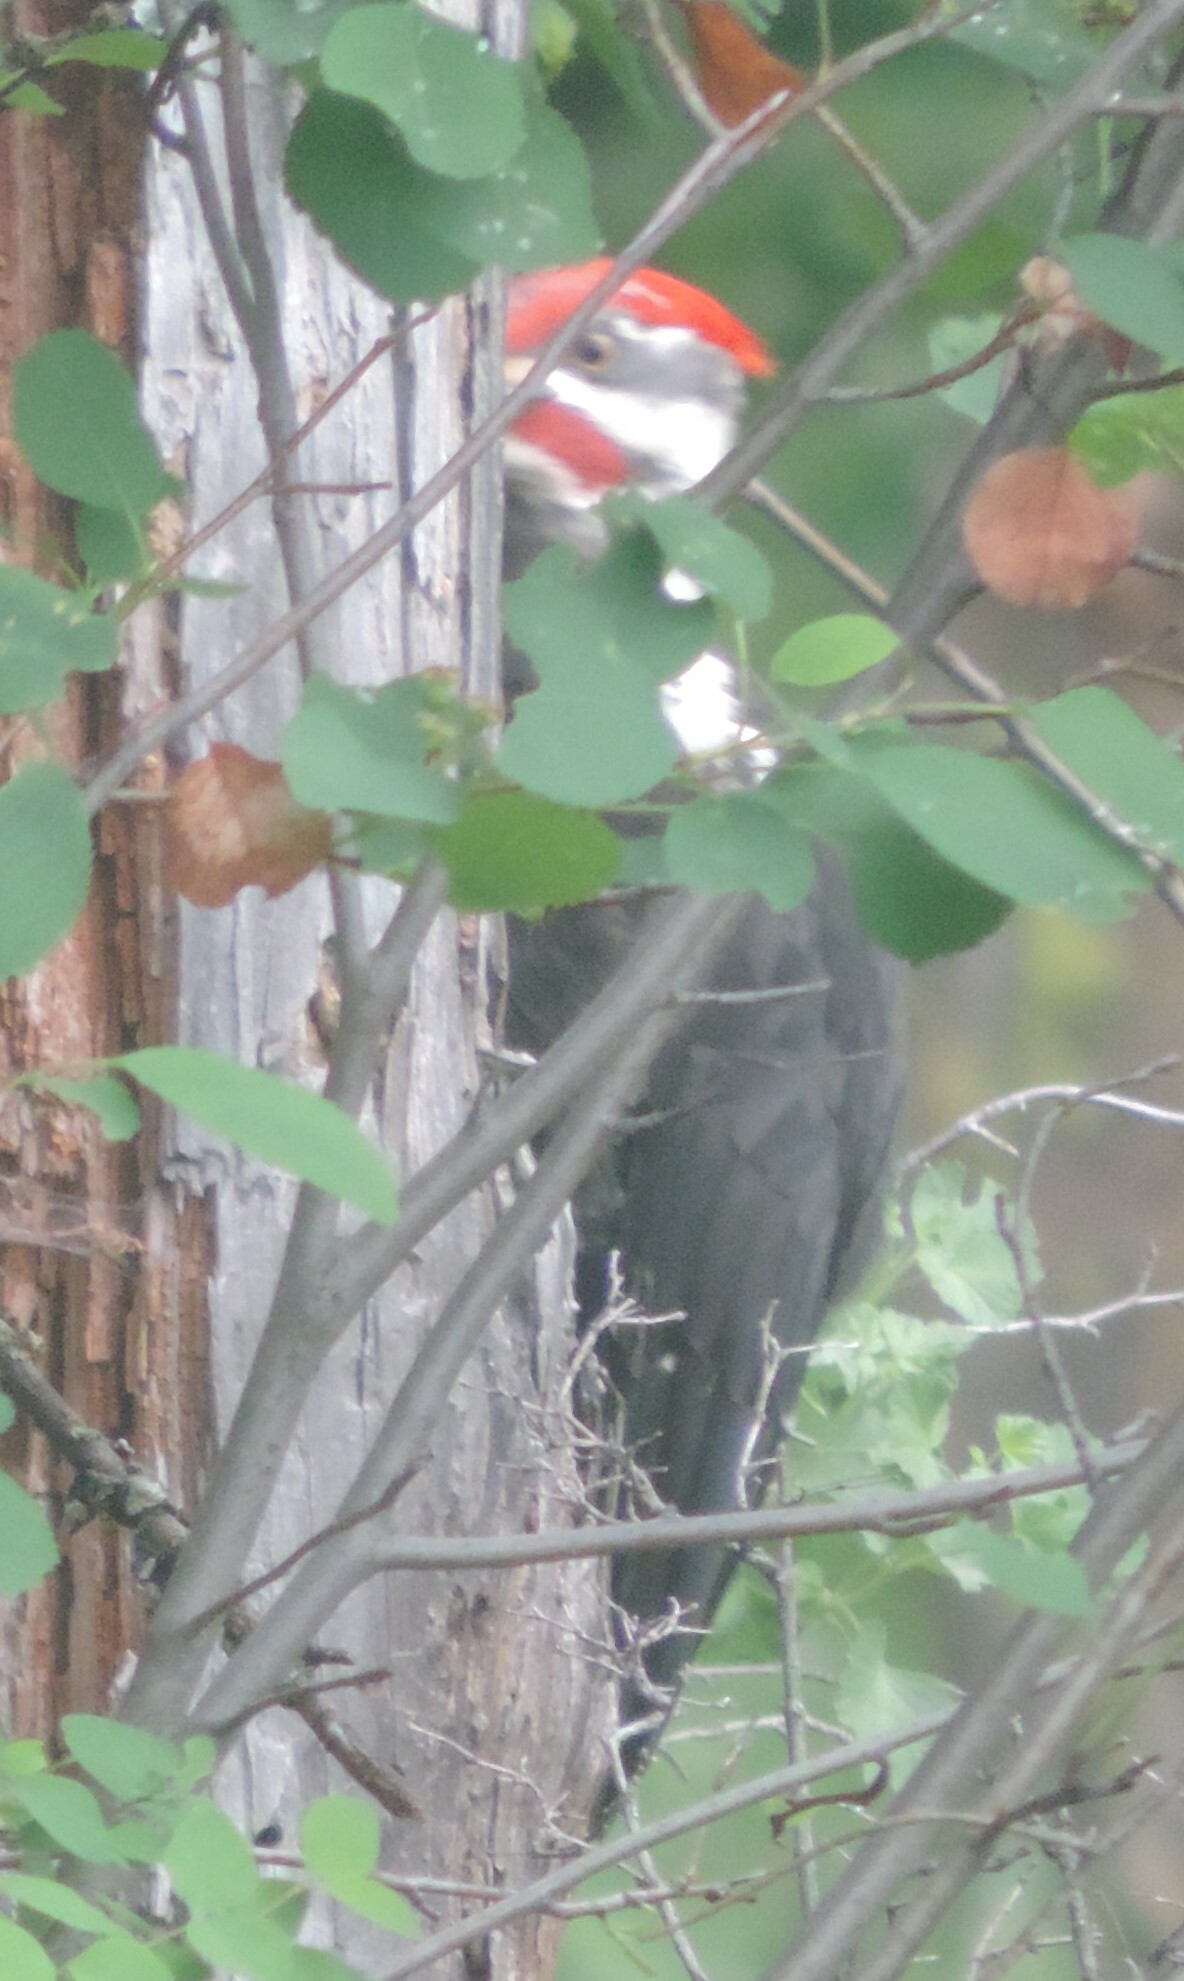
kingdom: Animalia
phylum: Chordata
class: Aves
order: Piciformes
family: Picidae
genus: Dryocopus
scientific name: Dryocopus pileatus
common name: Pileated woodpecker
